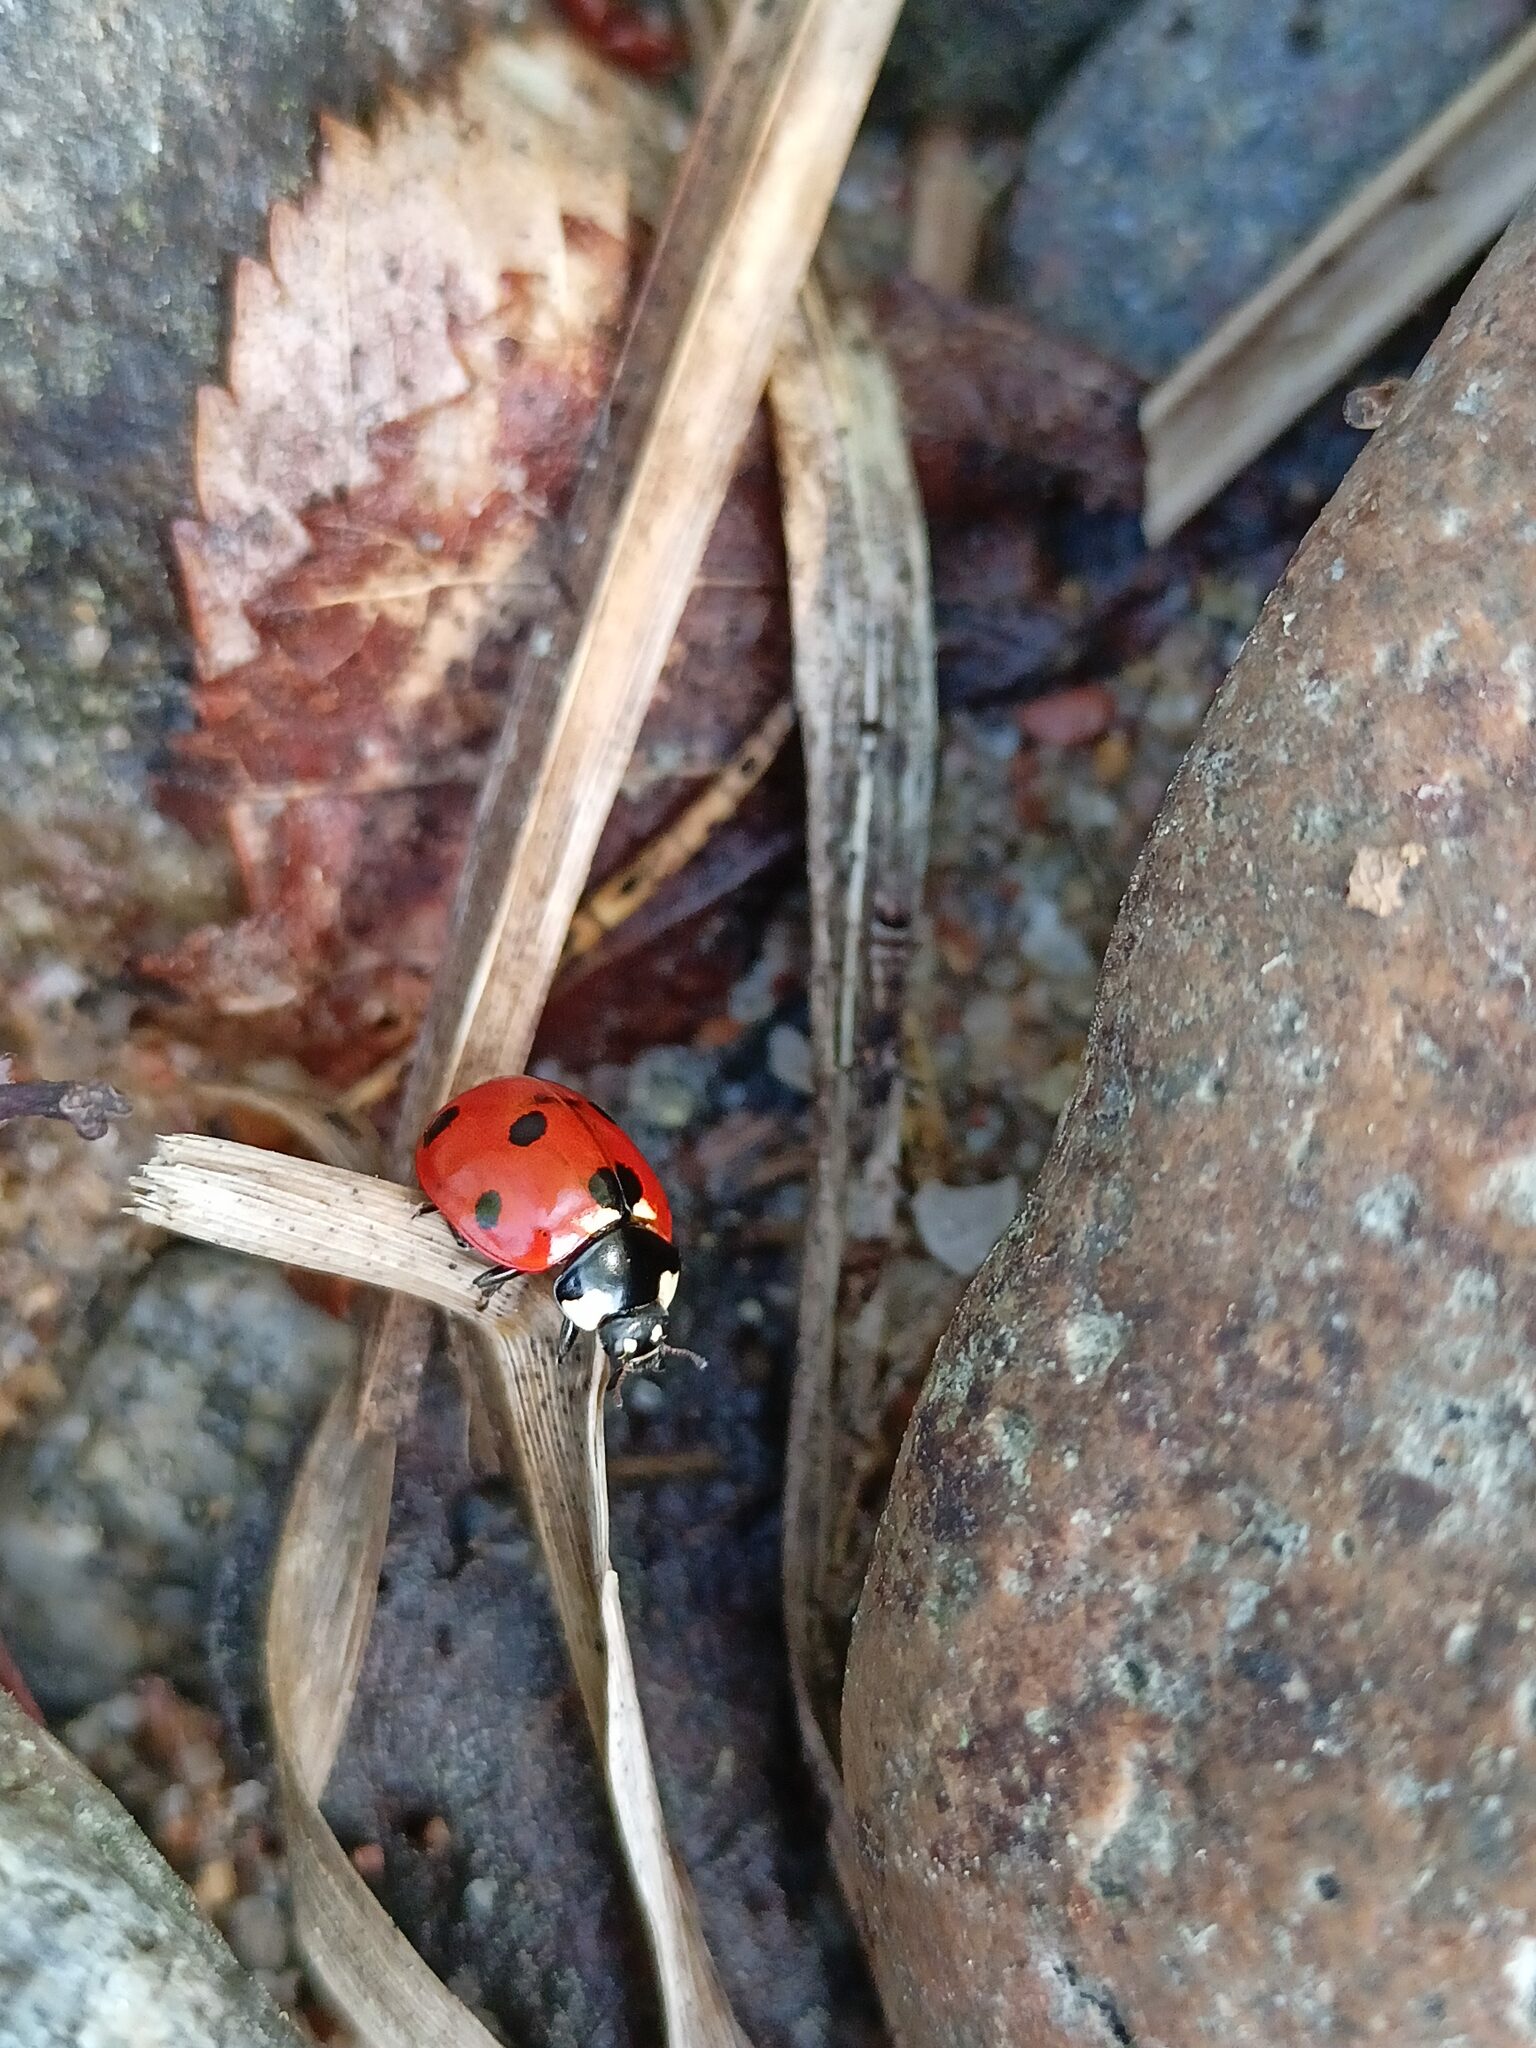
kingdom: Animalia
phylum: Arthropoda
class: Insecta
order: Coleoptera
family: Coccinellidae
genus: Coccinella
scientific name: Coccinella septempunctata
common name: Sevenspotted lady beetle
